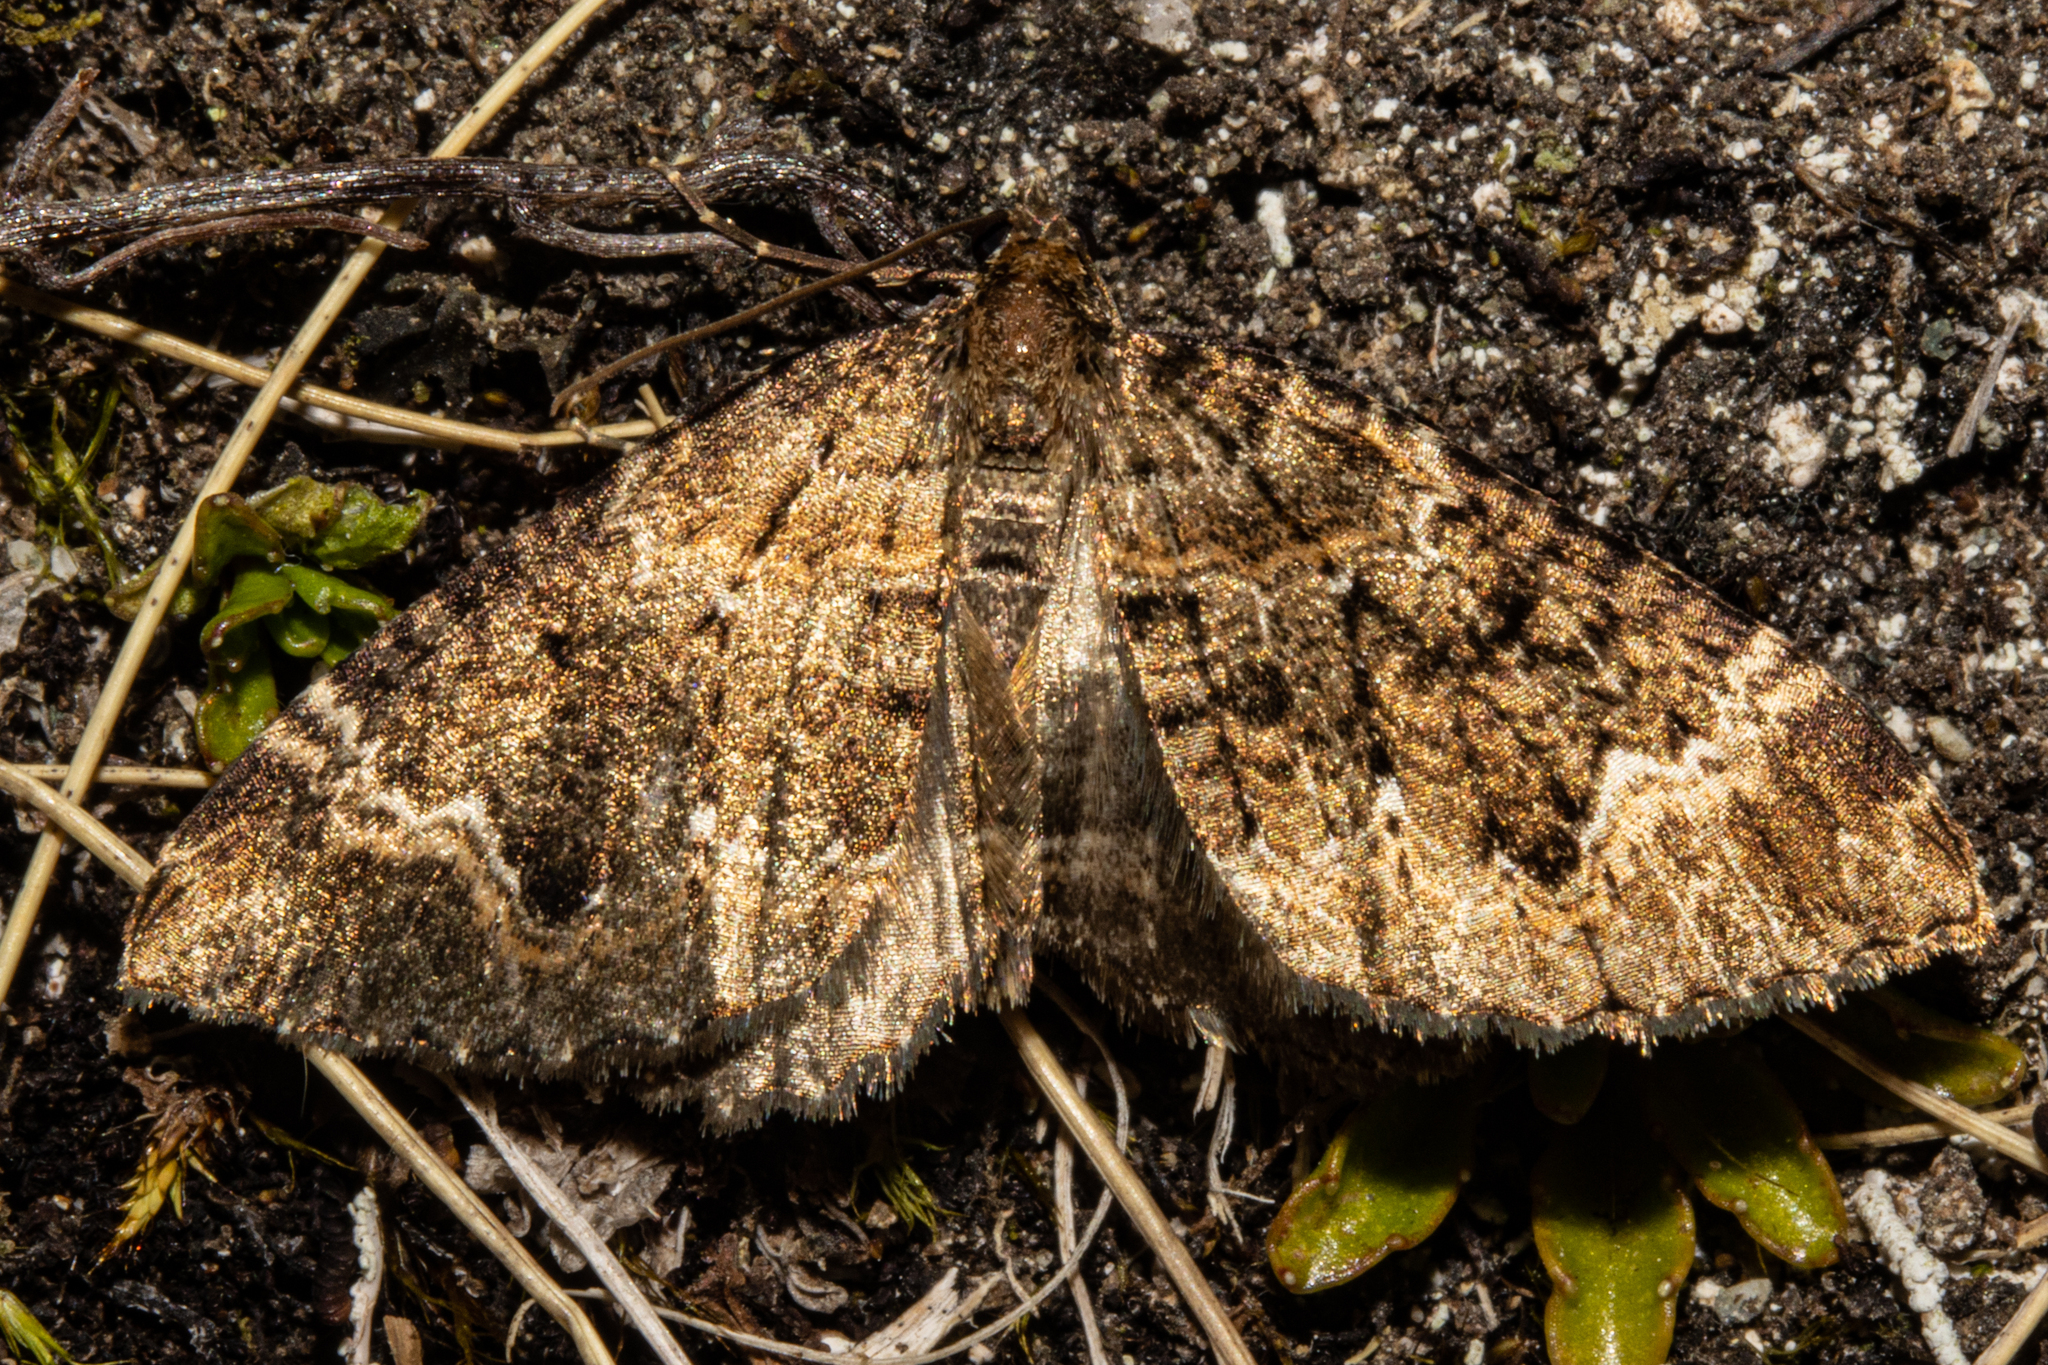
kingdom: Animalia
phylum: Arthropoda
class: Insecta
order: Lepidoptera
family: Geometridae
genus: Hydriomena
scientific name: Hydriomena hemizona
